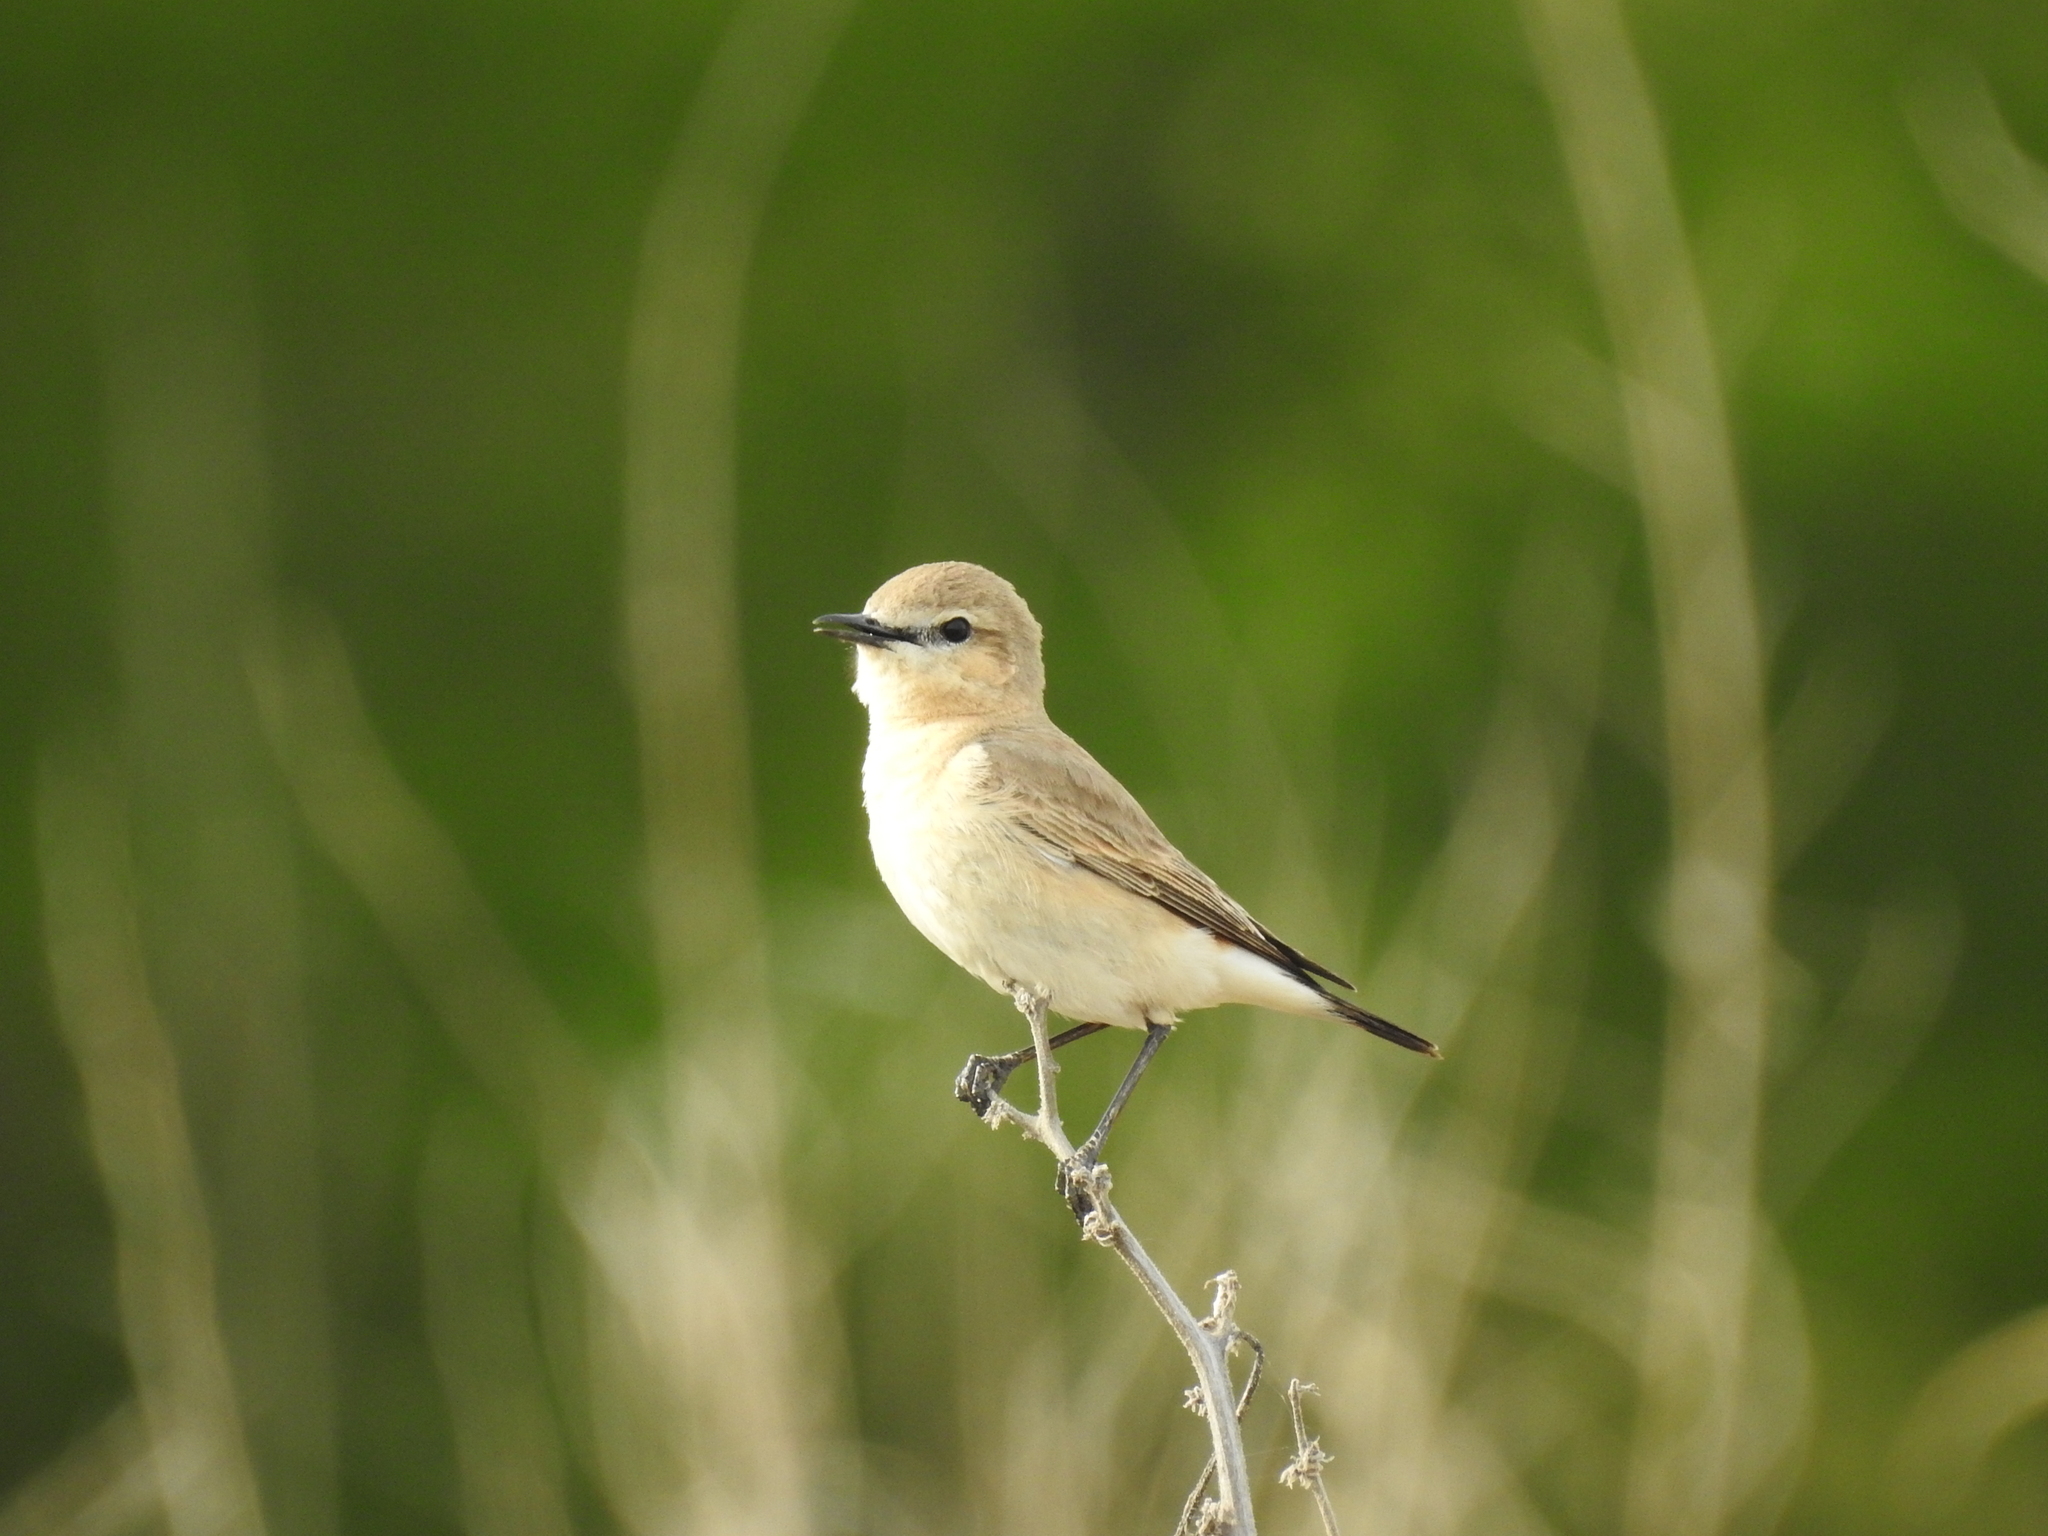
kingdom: Animalia
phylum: Chordata
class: Aves
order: Passeriformes
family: Muscicapidae
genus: Oenanthe
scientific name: Oenanthe isabellina
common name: Isabelline wheatear
